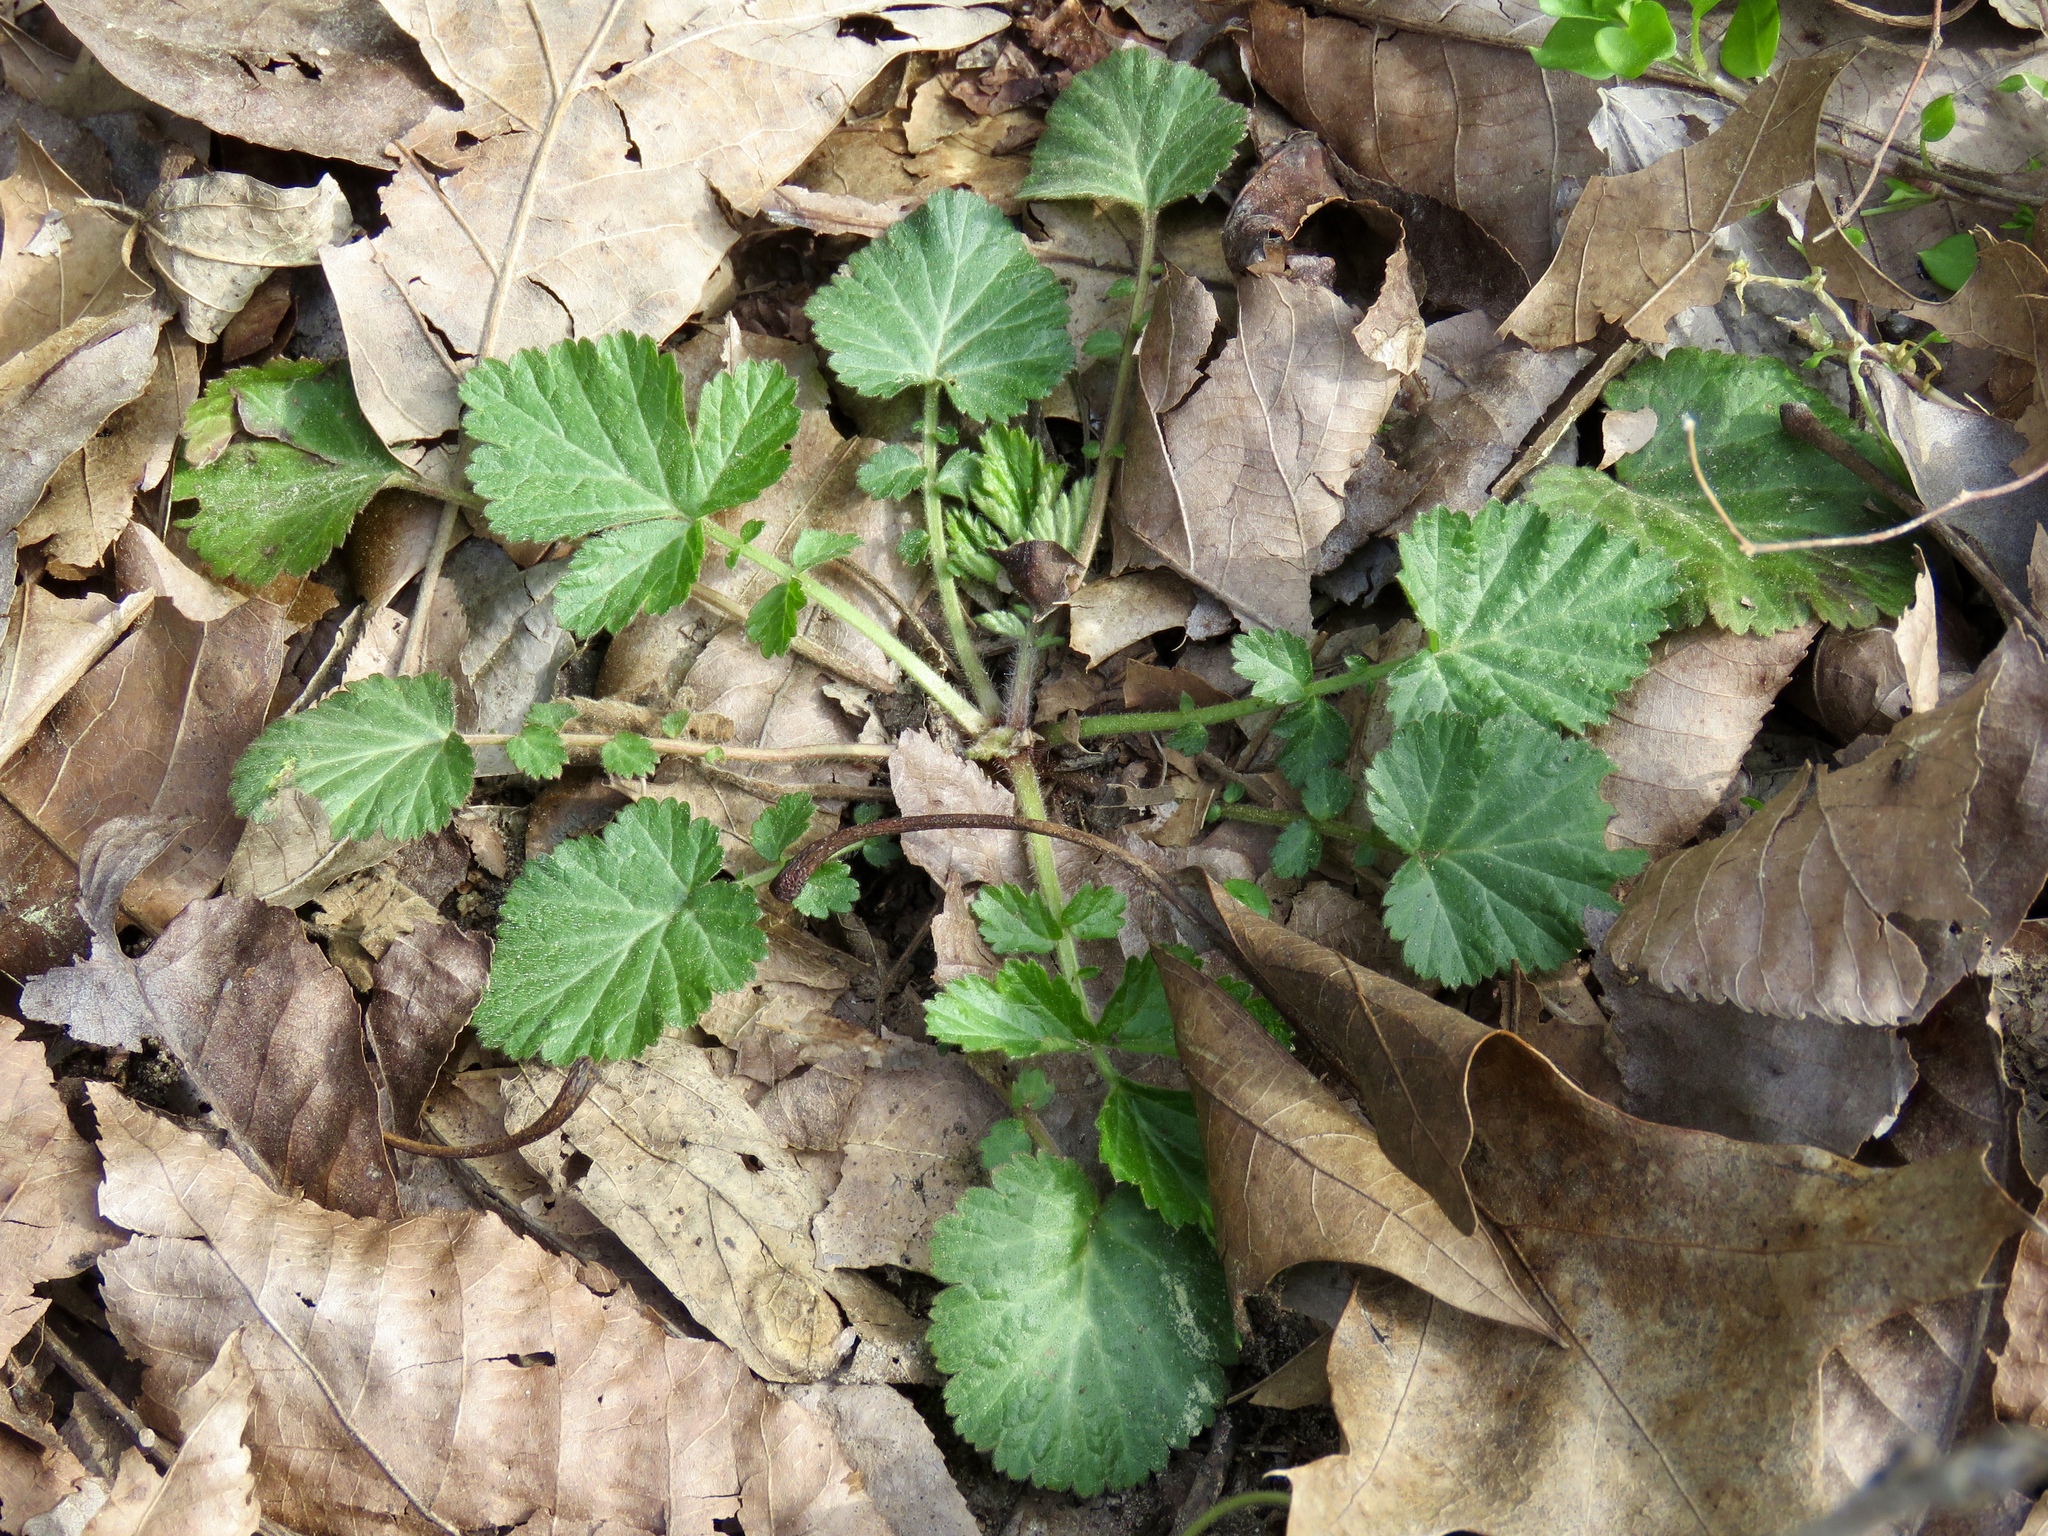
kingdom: Plantae
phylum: Tracheophyta
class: Magnoliopsida
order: Rosales
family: Rosaceae
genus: Geum
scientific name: Geum canadense
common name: White avens
